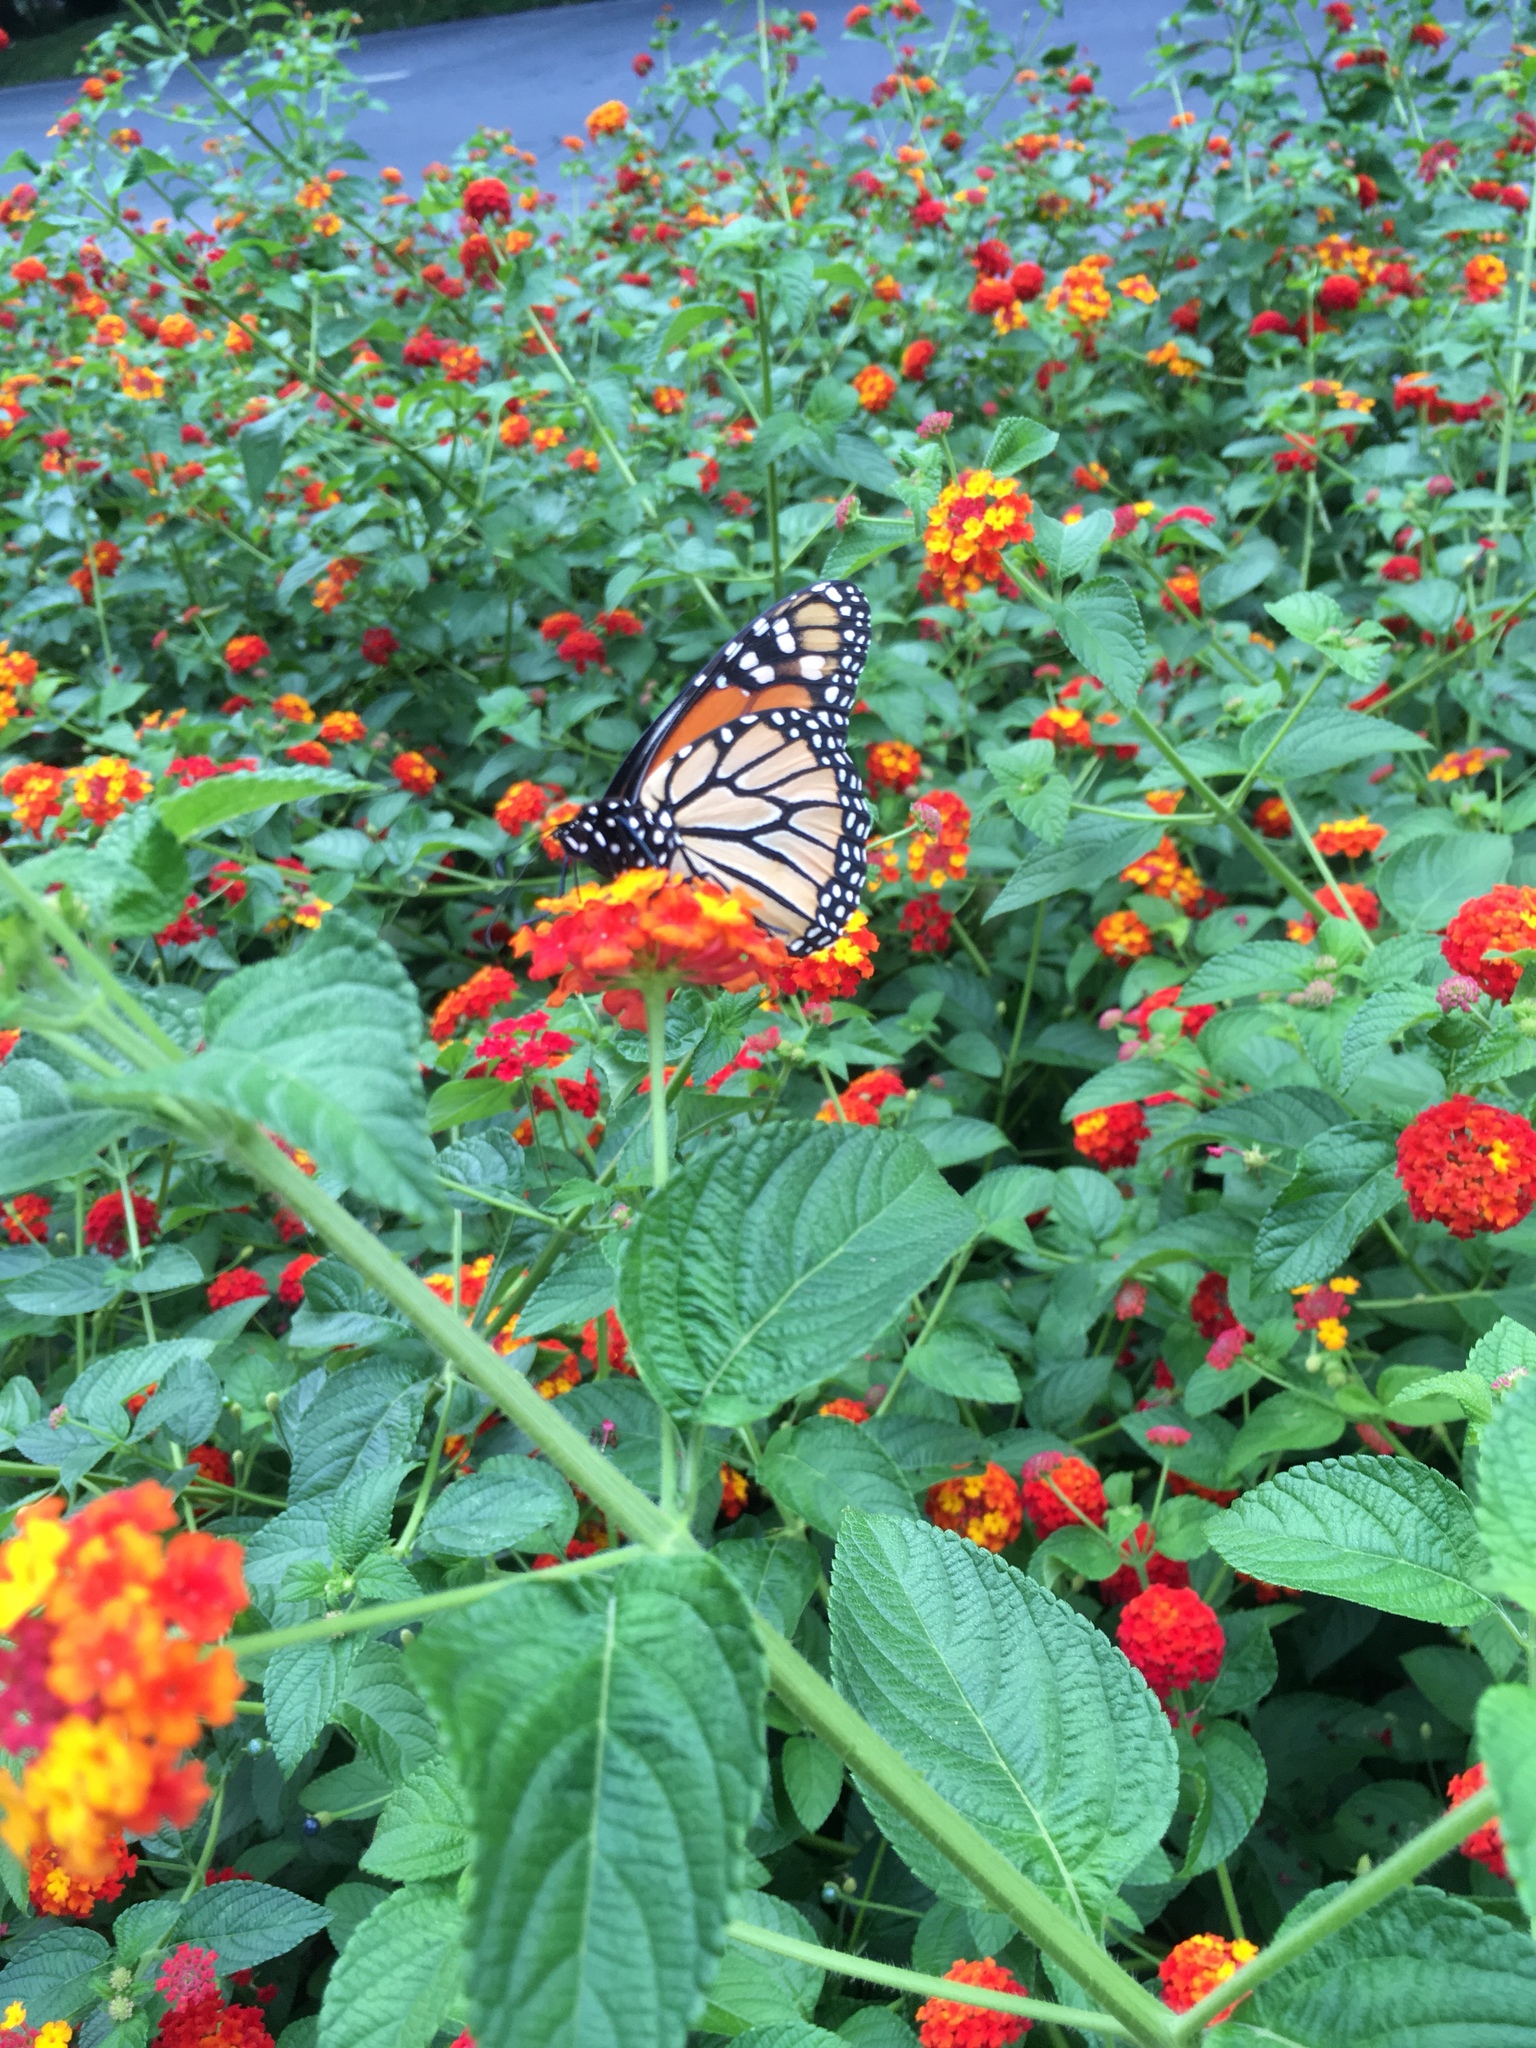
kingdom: Animalia
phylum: Arthropoda
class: Insecta
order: Lepidoptera
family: Nymphalidae
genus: Danaus
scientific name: Danaus plexippus
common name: Monarch
